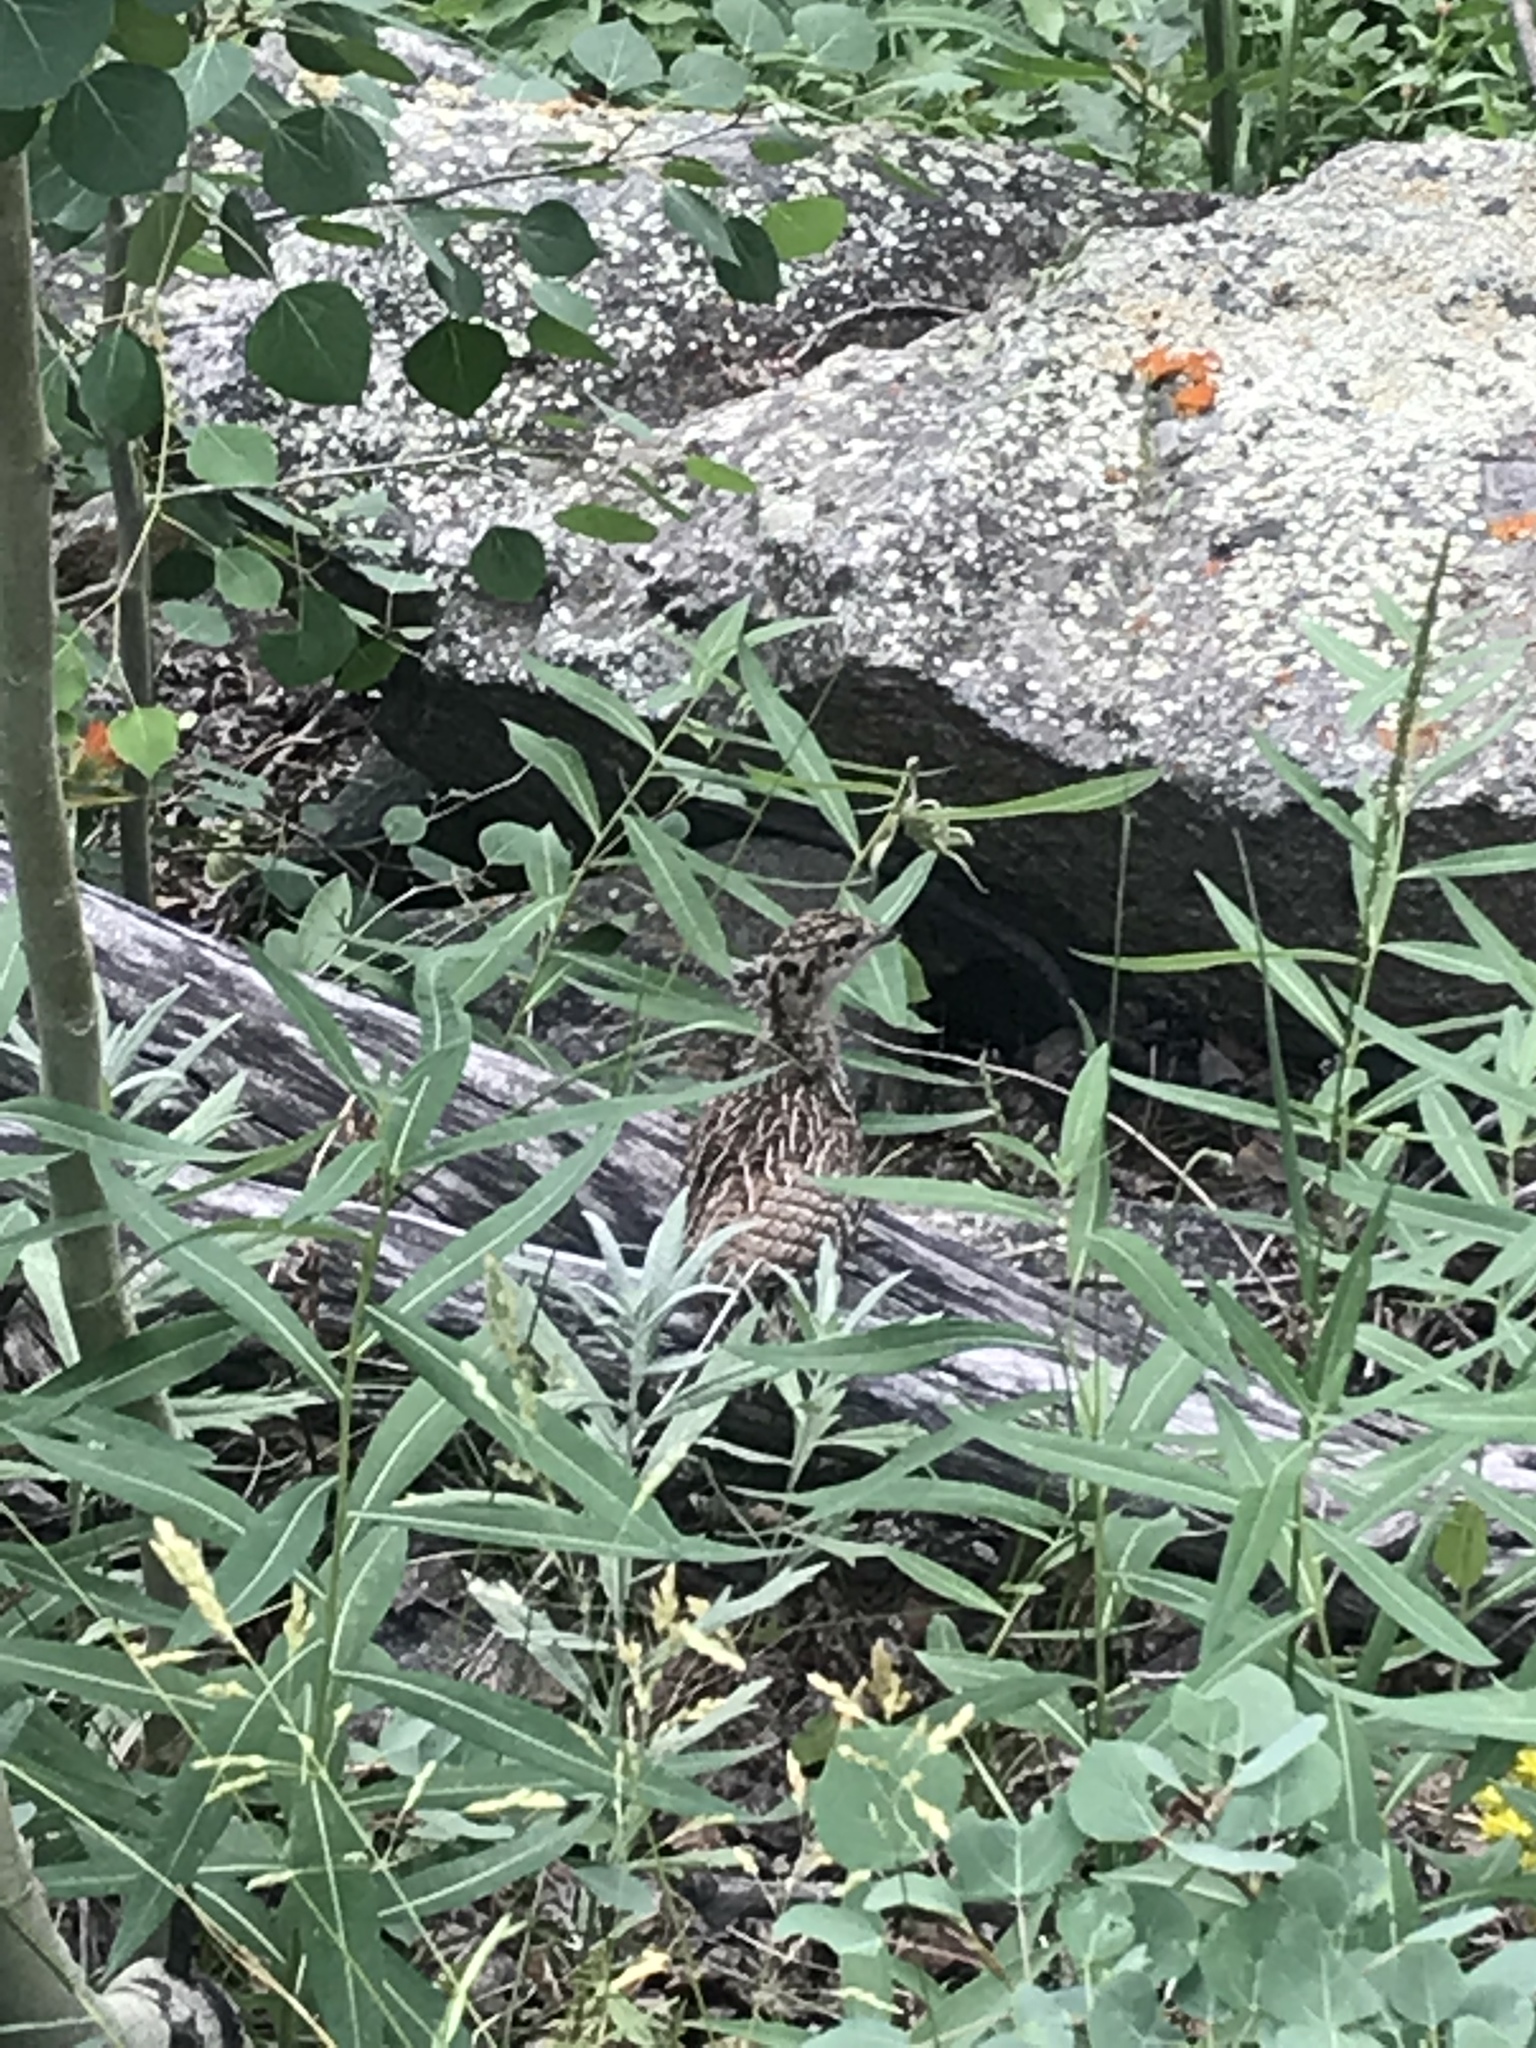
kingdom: Animalia
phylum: Chordata
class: Aves
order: Galliformes
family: Phasianidae
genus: Dendragapus
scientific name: Dendragapus obscurus
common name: Dusky grouse
